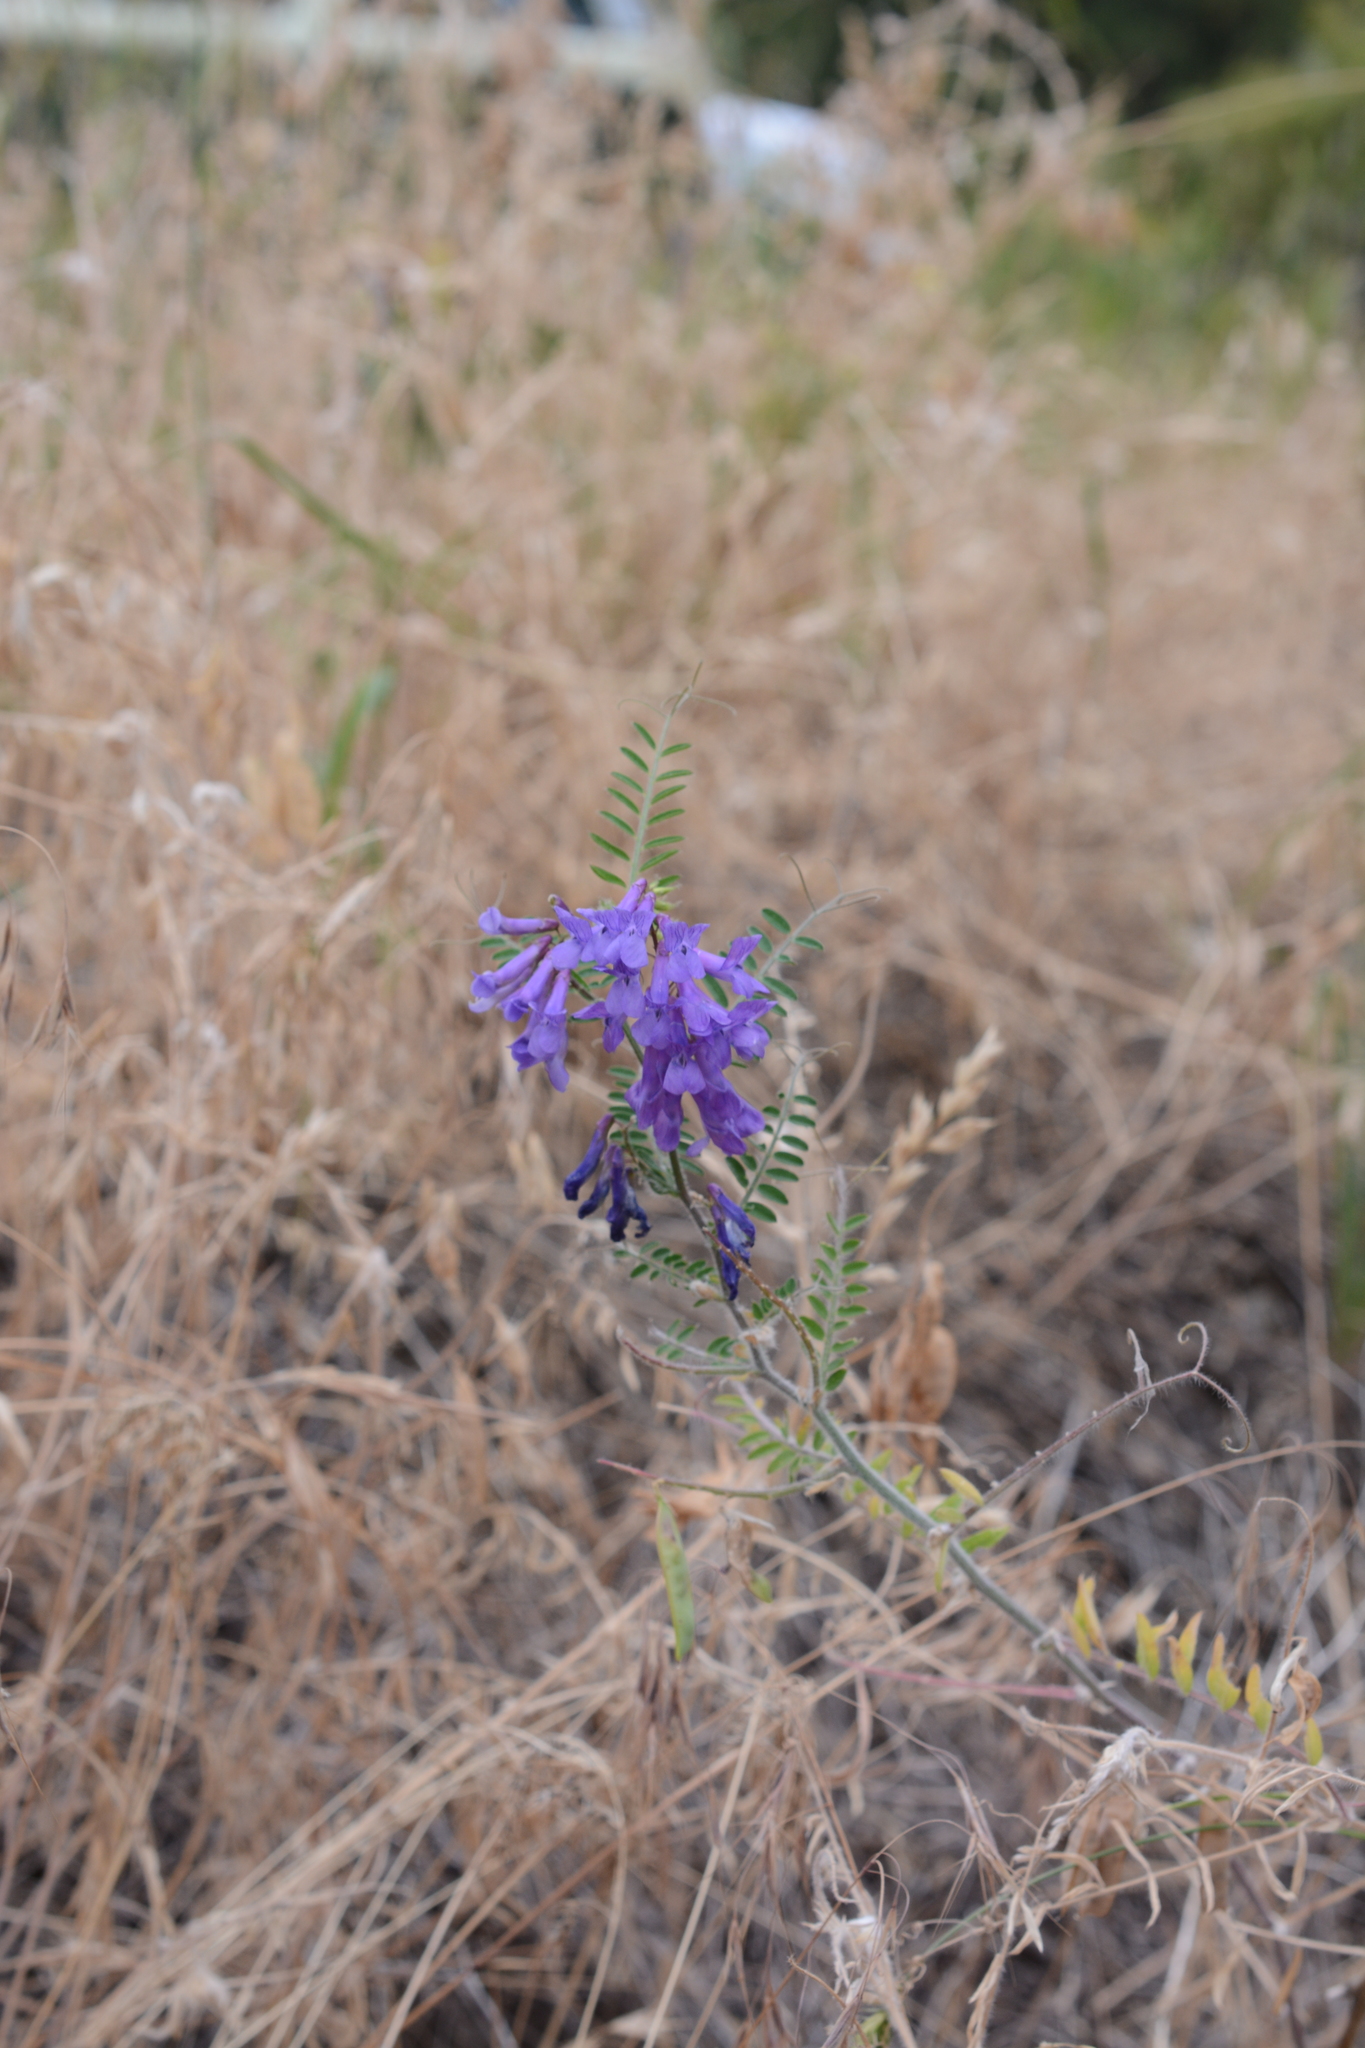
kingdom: Plantae
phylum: Tracheophyta
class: Magnoliopsida
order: Fabales
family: Fabaceae
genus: Vicia
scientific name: Vicia villosa
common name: Fodder vetch
